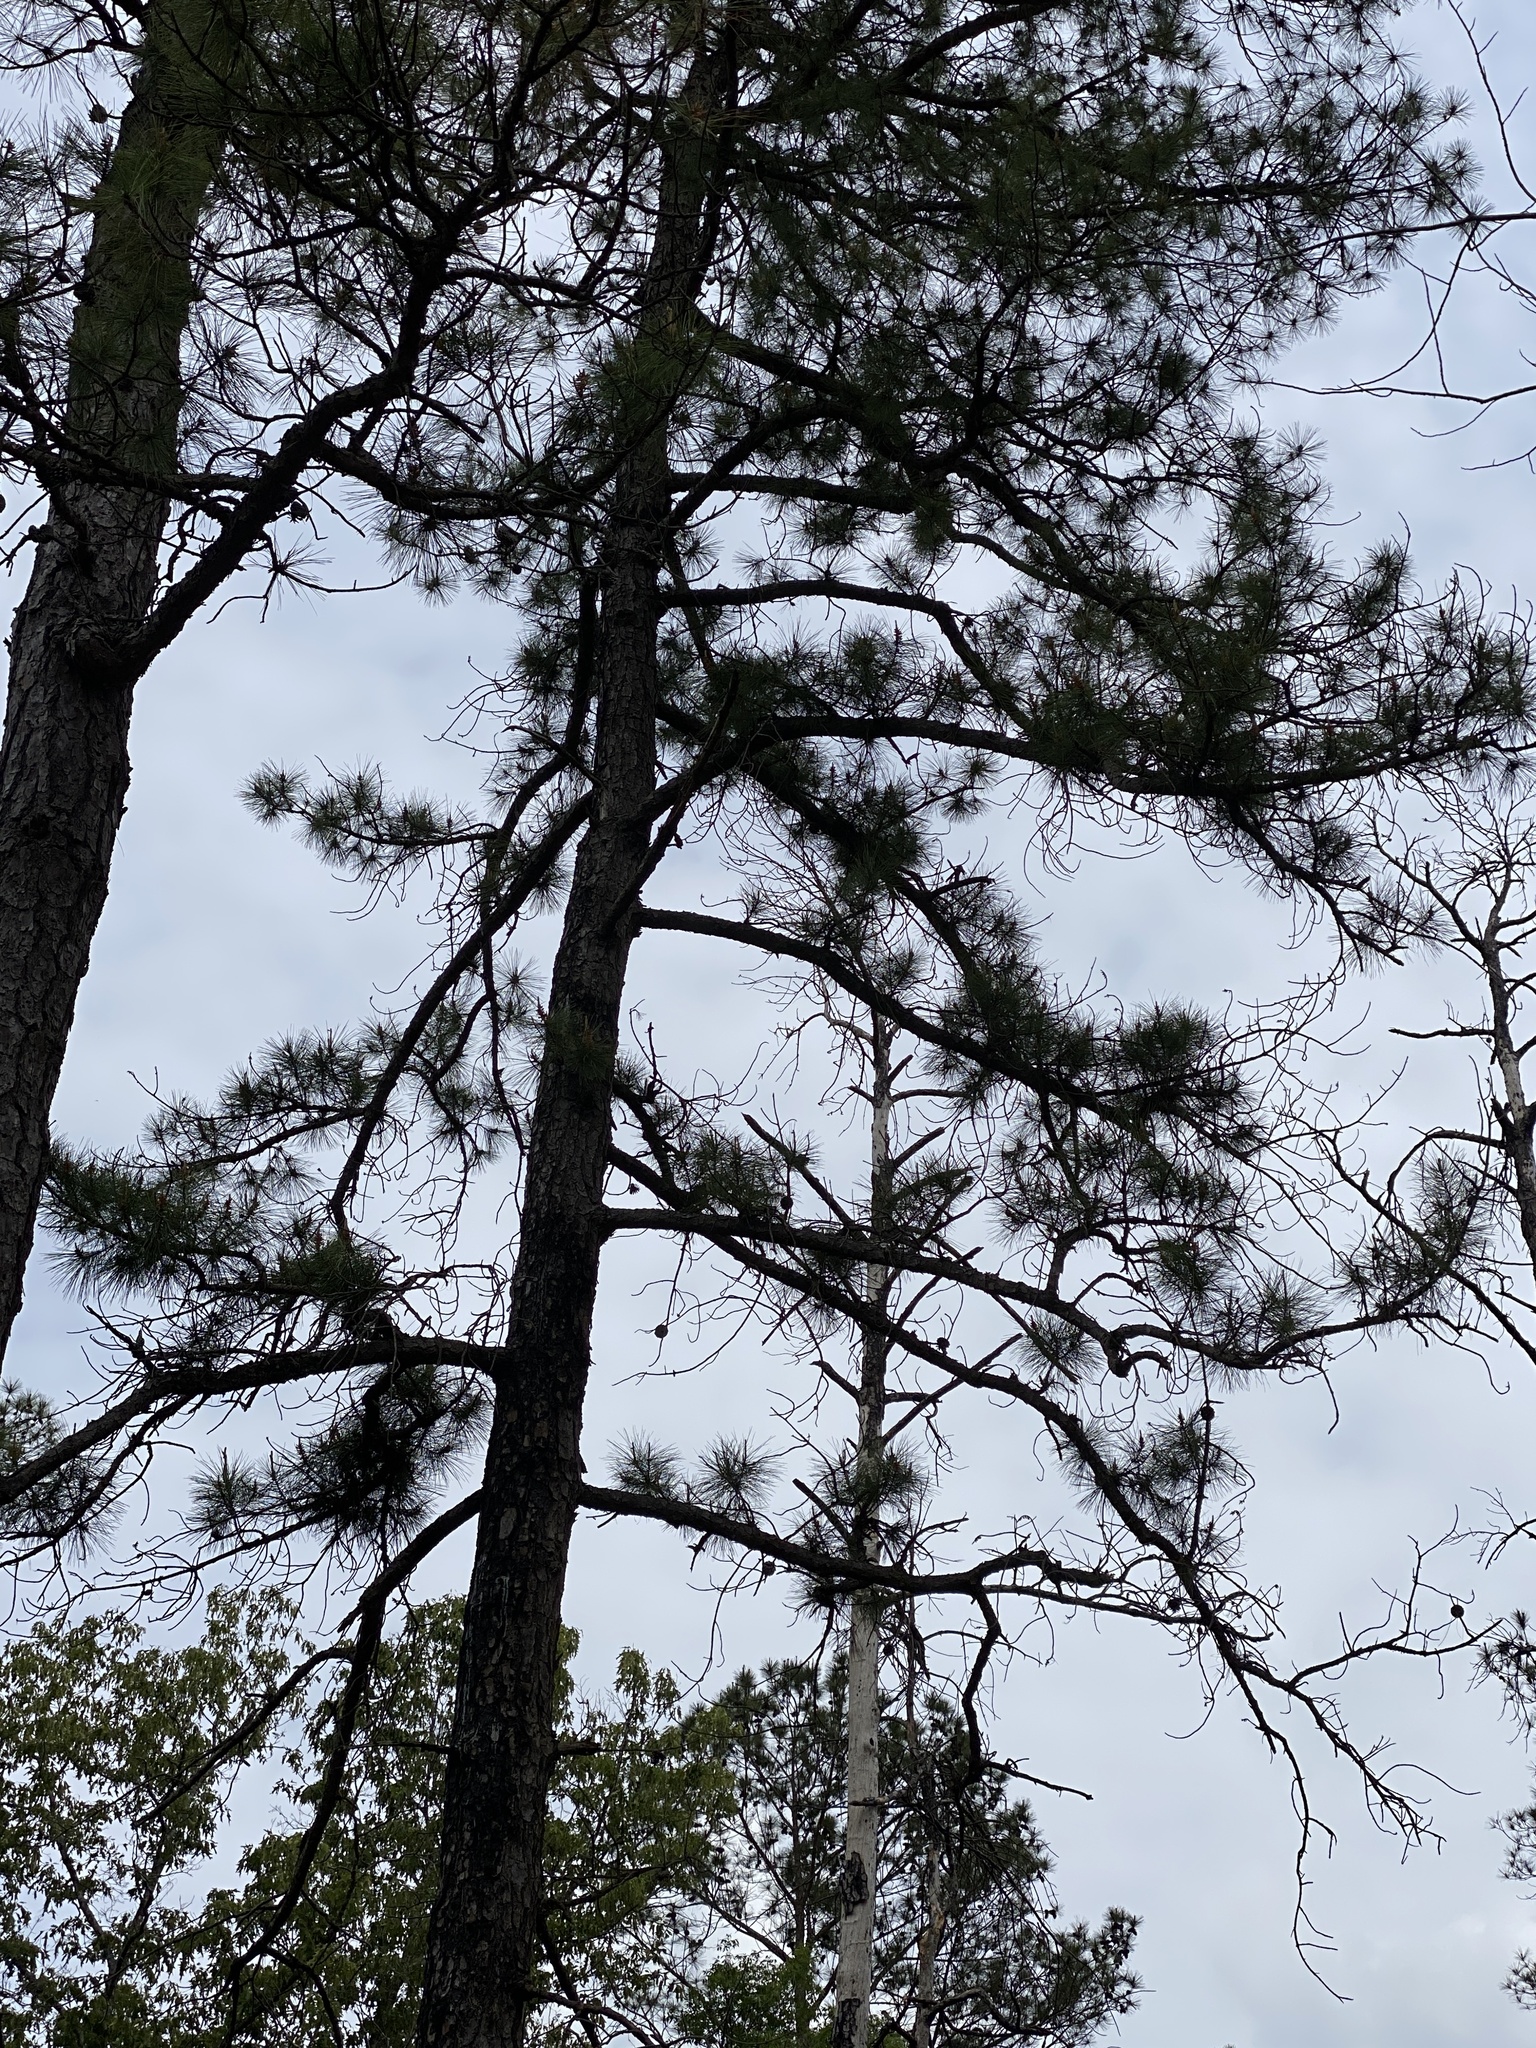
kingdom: Plantae
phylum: Tracheophyta
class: Pinopsida
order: Pinales
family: Pinaceae
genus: Pinus
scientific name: Pinus serotina
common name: Marsh pine
